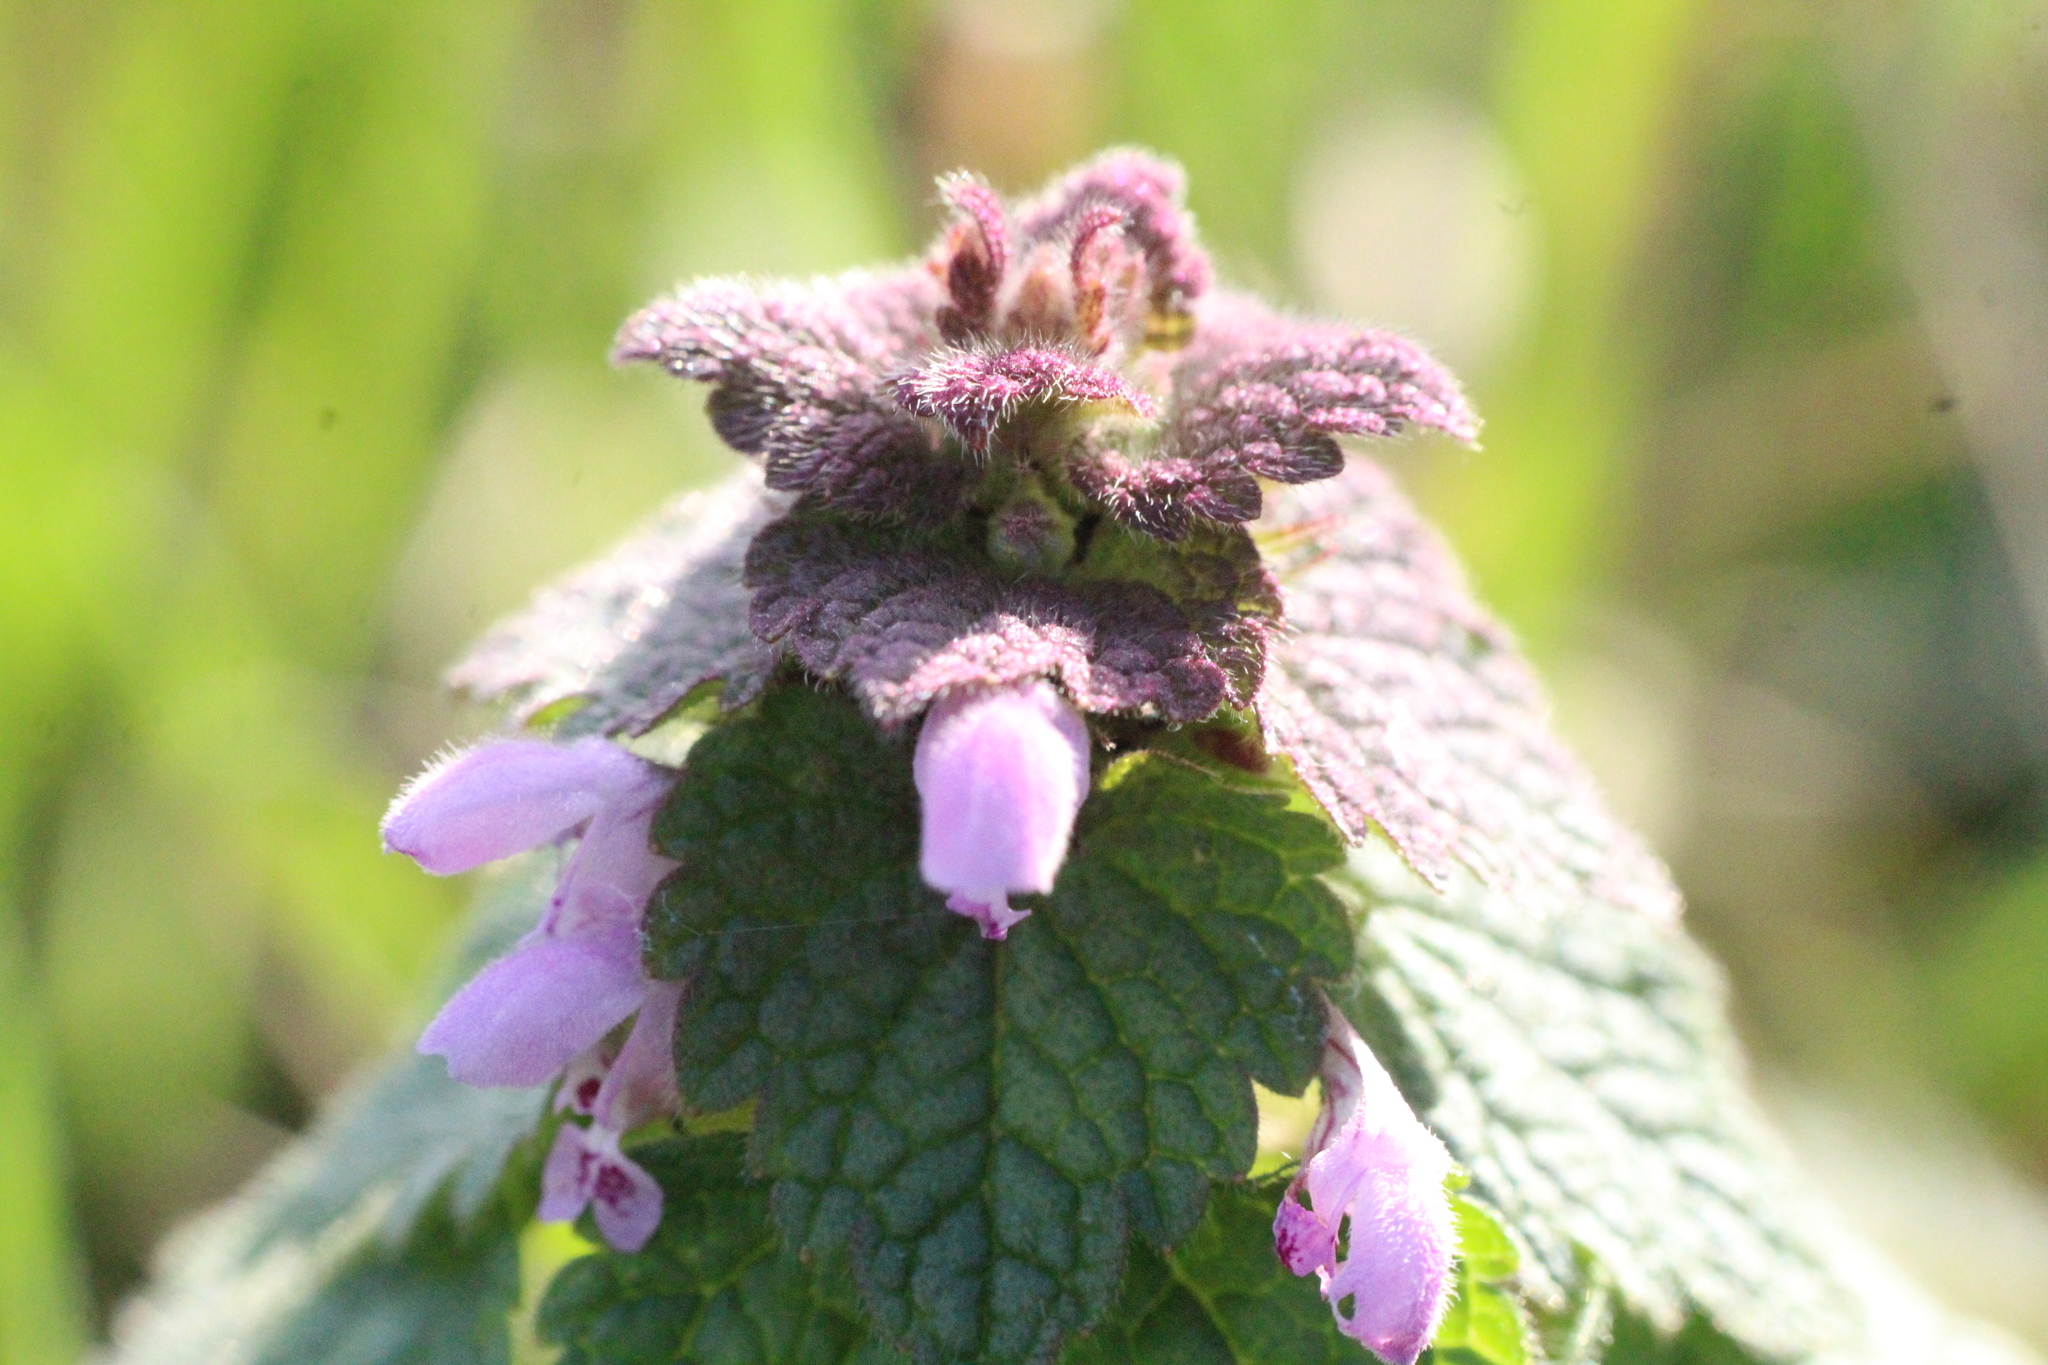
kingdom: Plantae
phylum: Tracheophyta
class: Magnoliopsida
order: Lamiales
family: Lamiaceae
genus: Lamium
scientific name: Lamium purpureum
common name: Red dead-nettle
